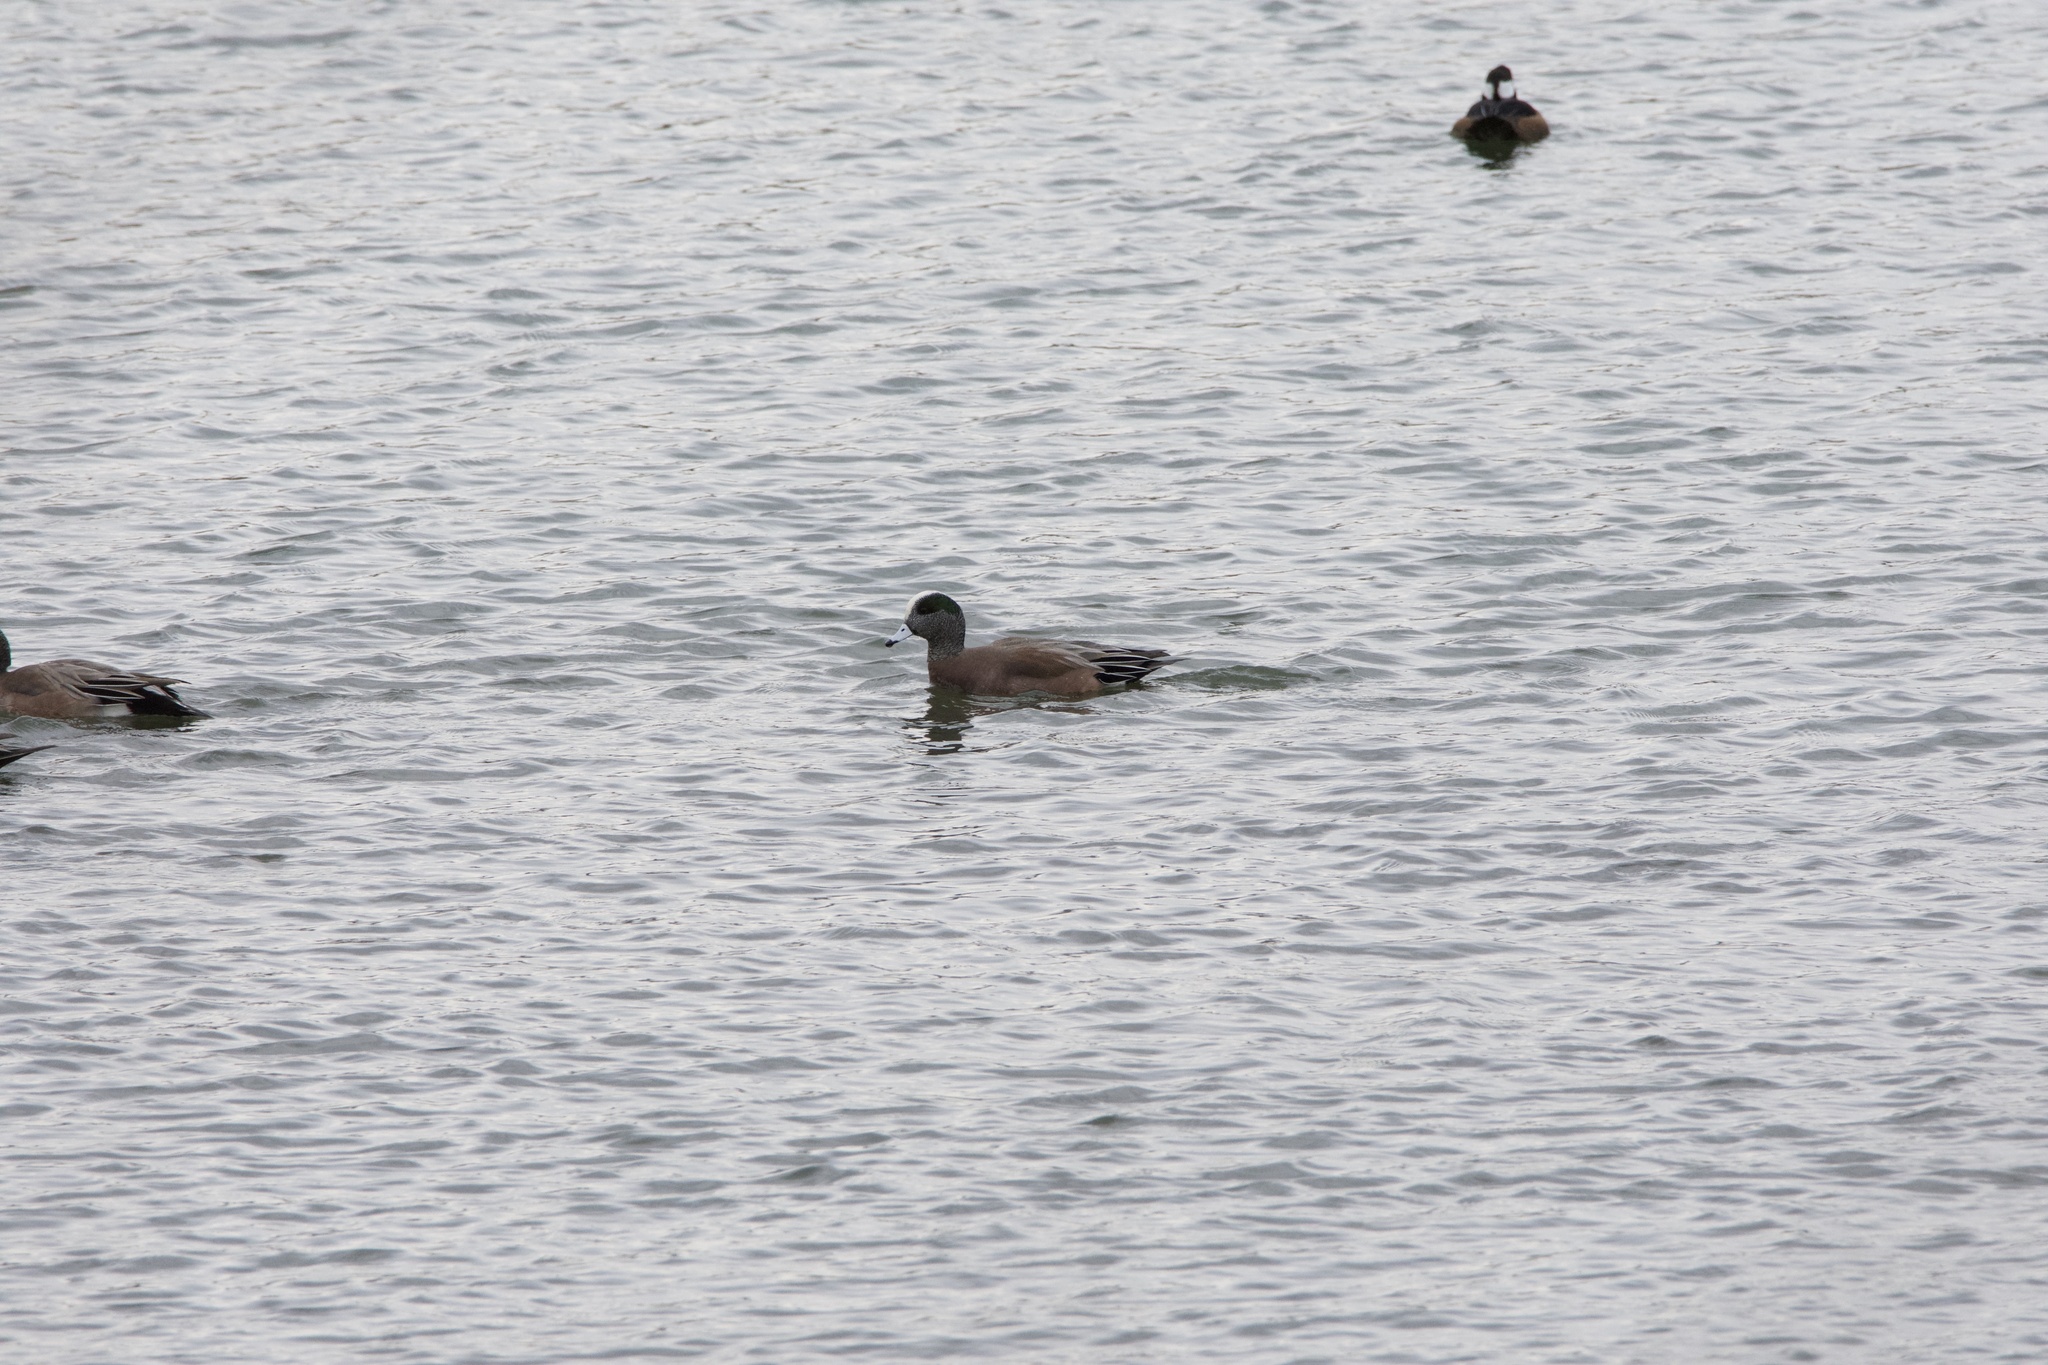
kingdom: Animalia
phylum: Chordata
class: Aves
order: Anseriformes
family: Anatidae
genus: Mareca
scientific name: Mareca americana
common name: American wigeon
